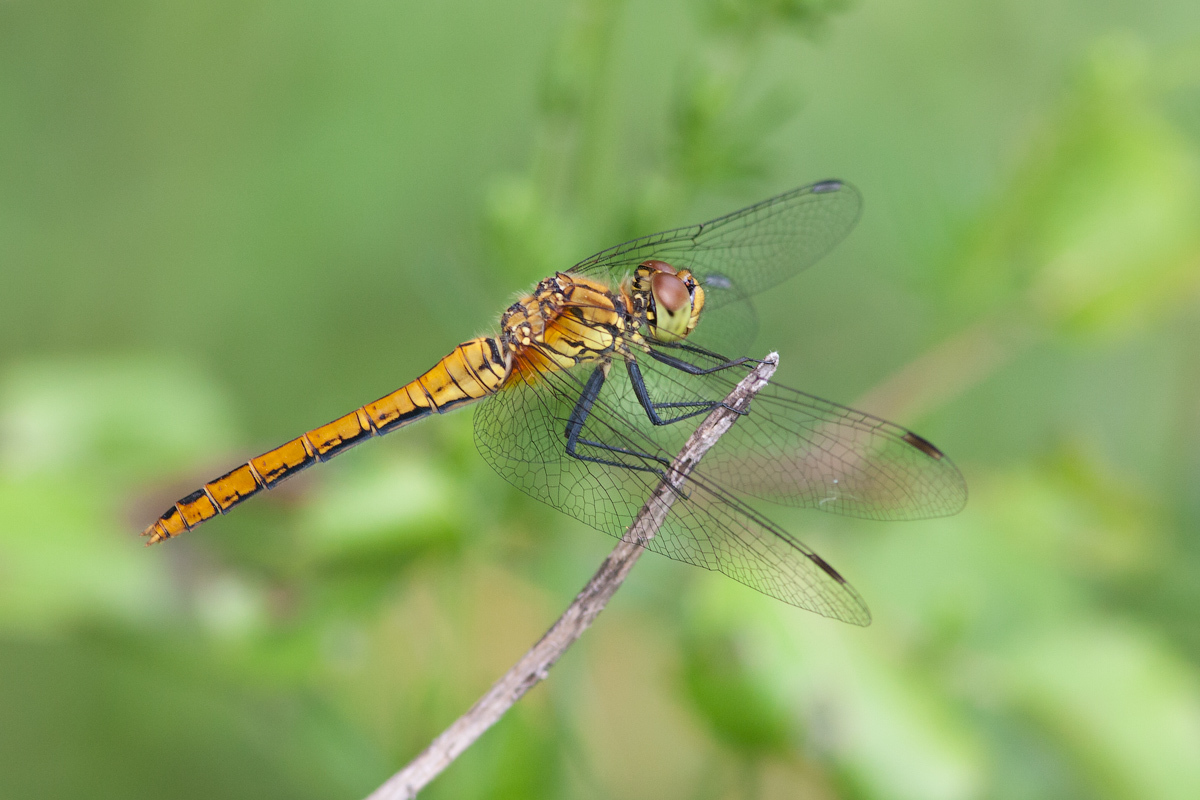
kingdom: Animalia
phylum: Arthropoda
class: Insecta
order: Odonata
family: Libellulidae
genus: Sympetrum
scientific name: Sympetrum sanguineum
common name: Ruddy darter
